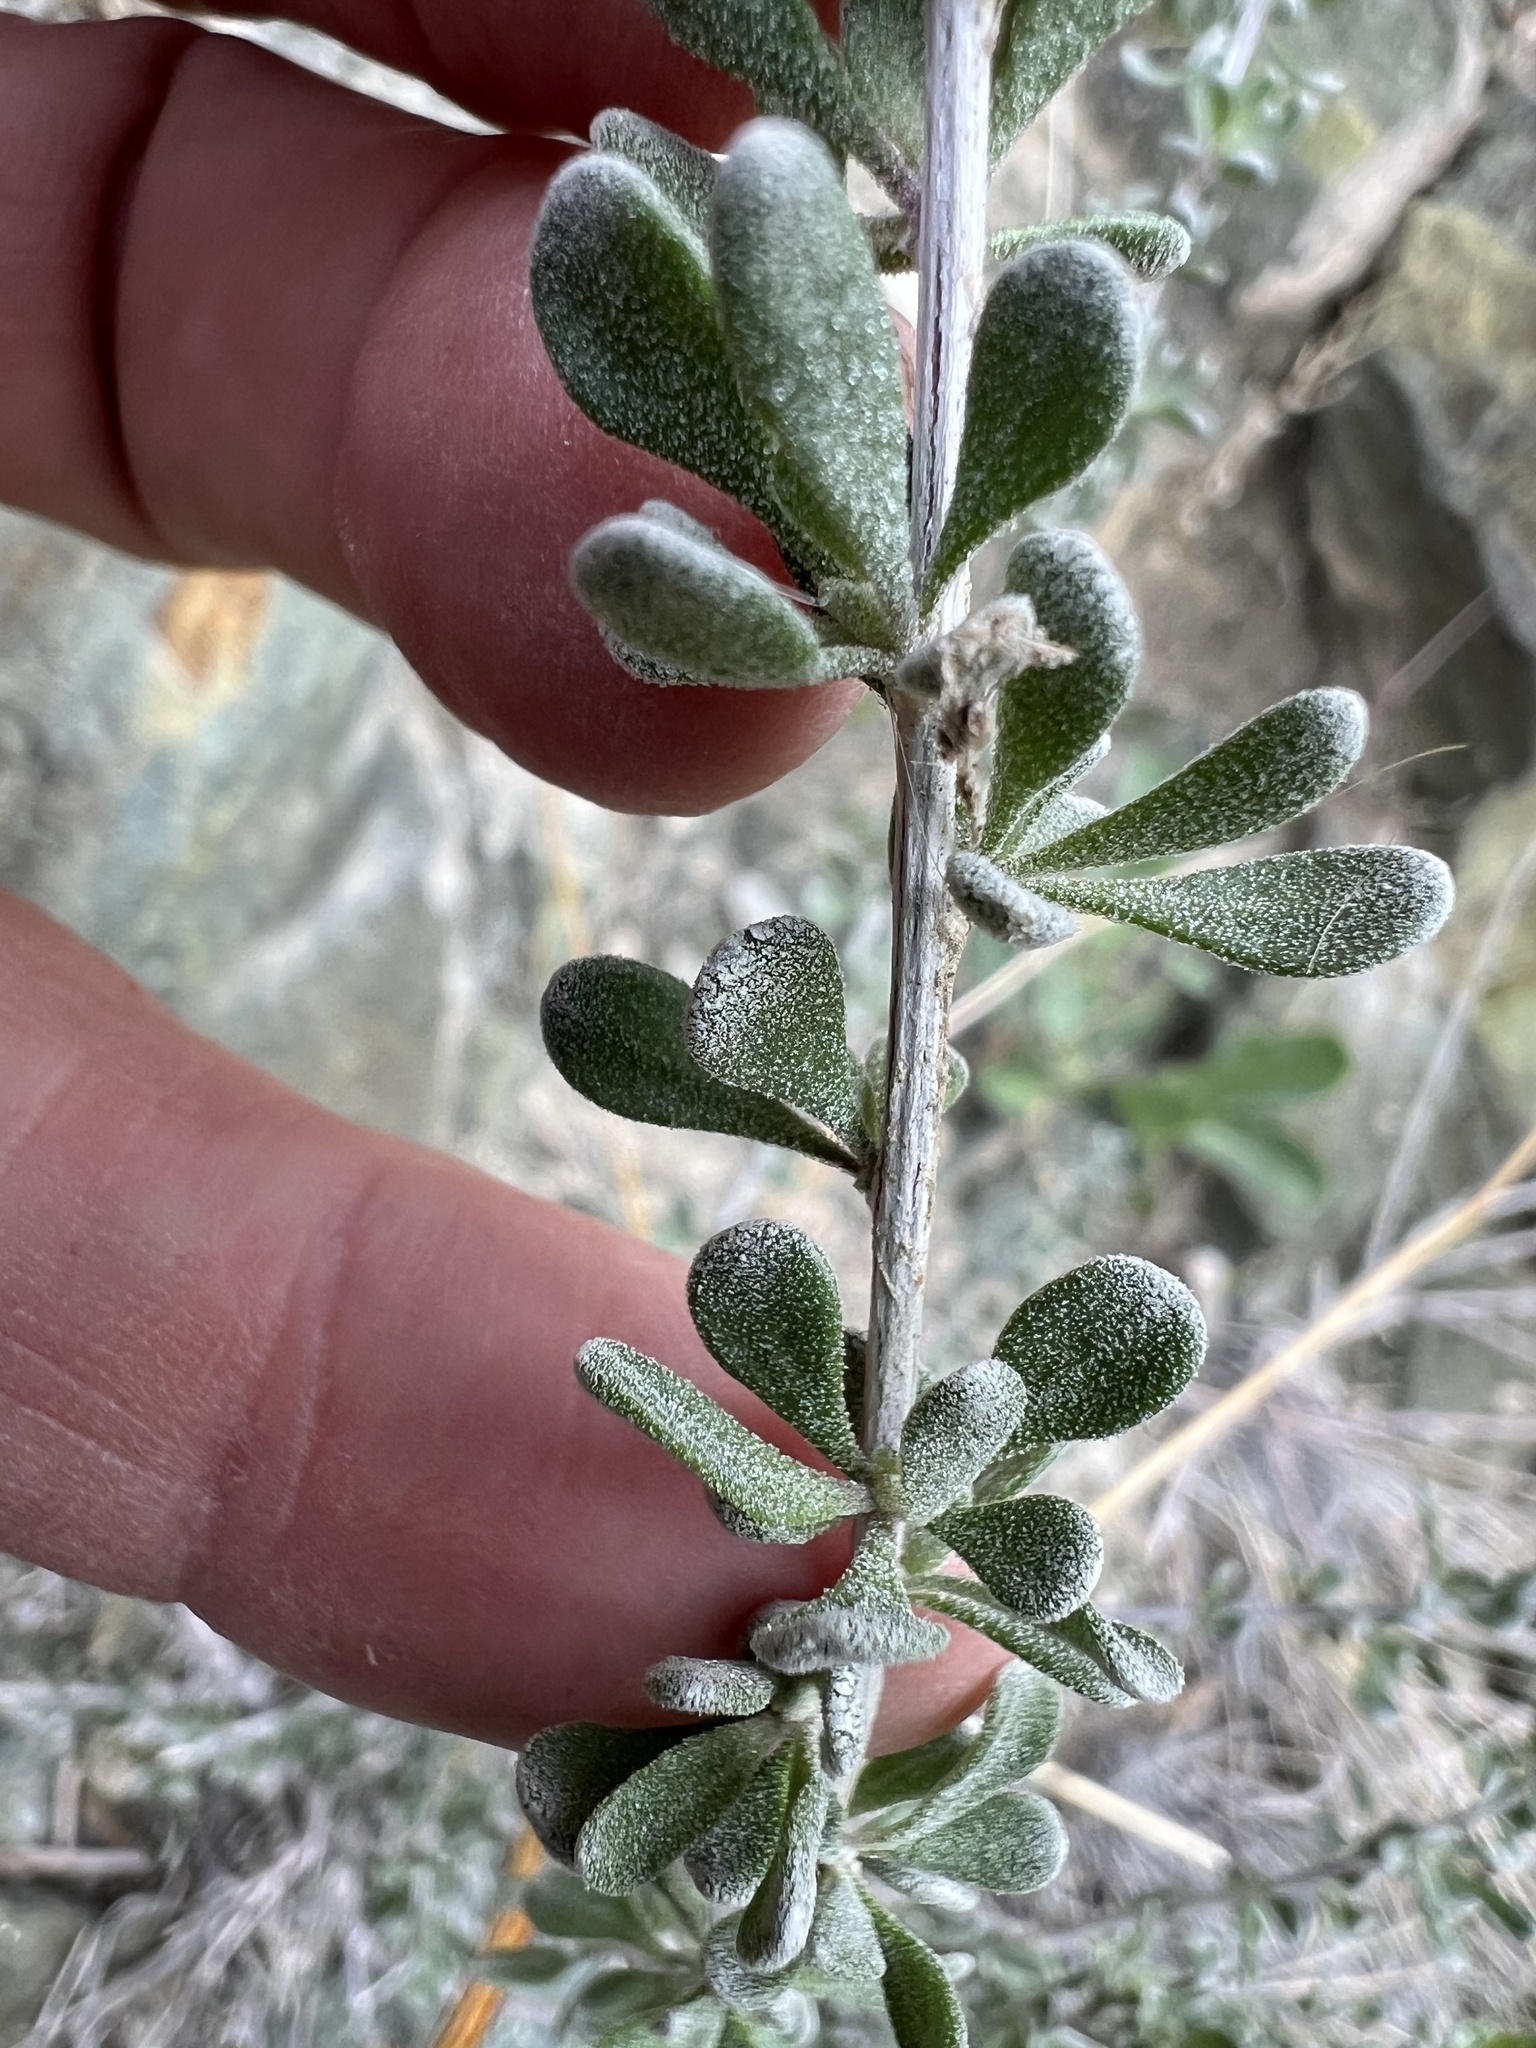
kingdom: Plantae
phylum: Tracheophyta
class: Magnoliopsida
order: Caryophyllales
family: Amaranthaceae
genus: Grayia
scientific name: Grayia spinosa
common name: Spiny hopsage
